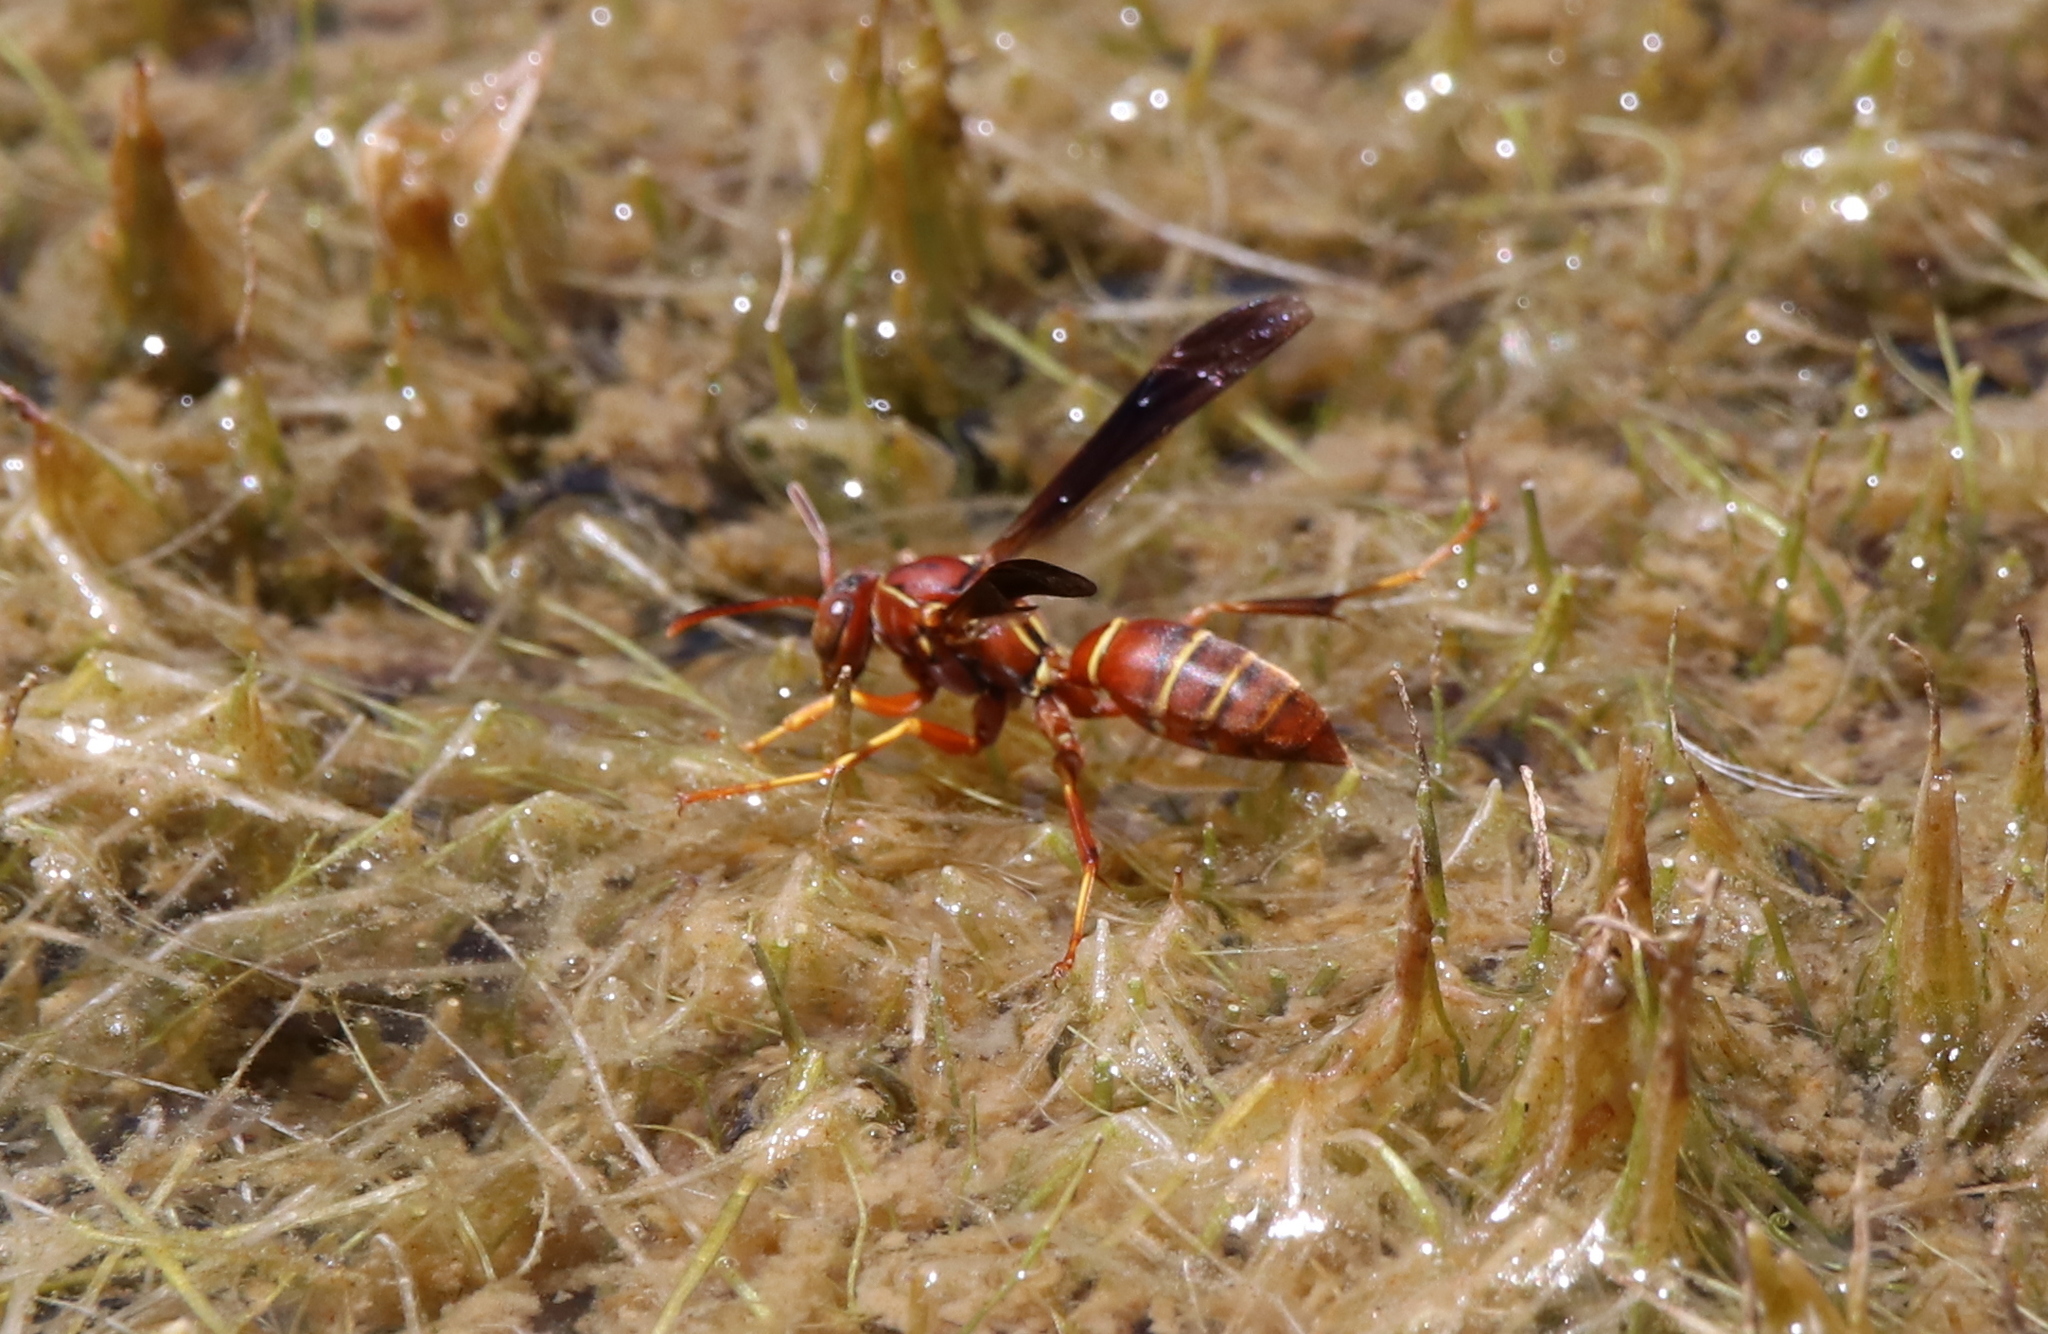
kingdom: Animalia
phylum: Arthropoda
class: Insecta
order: Hymenoptera
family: Eumenidae
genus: Polistes
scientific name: Polistes dorsalis
